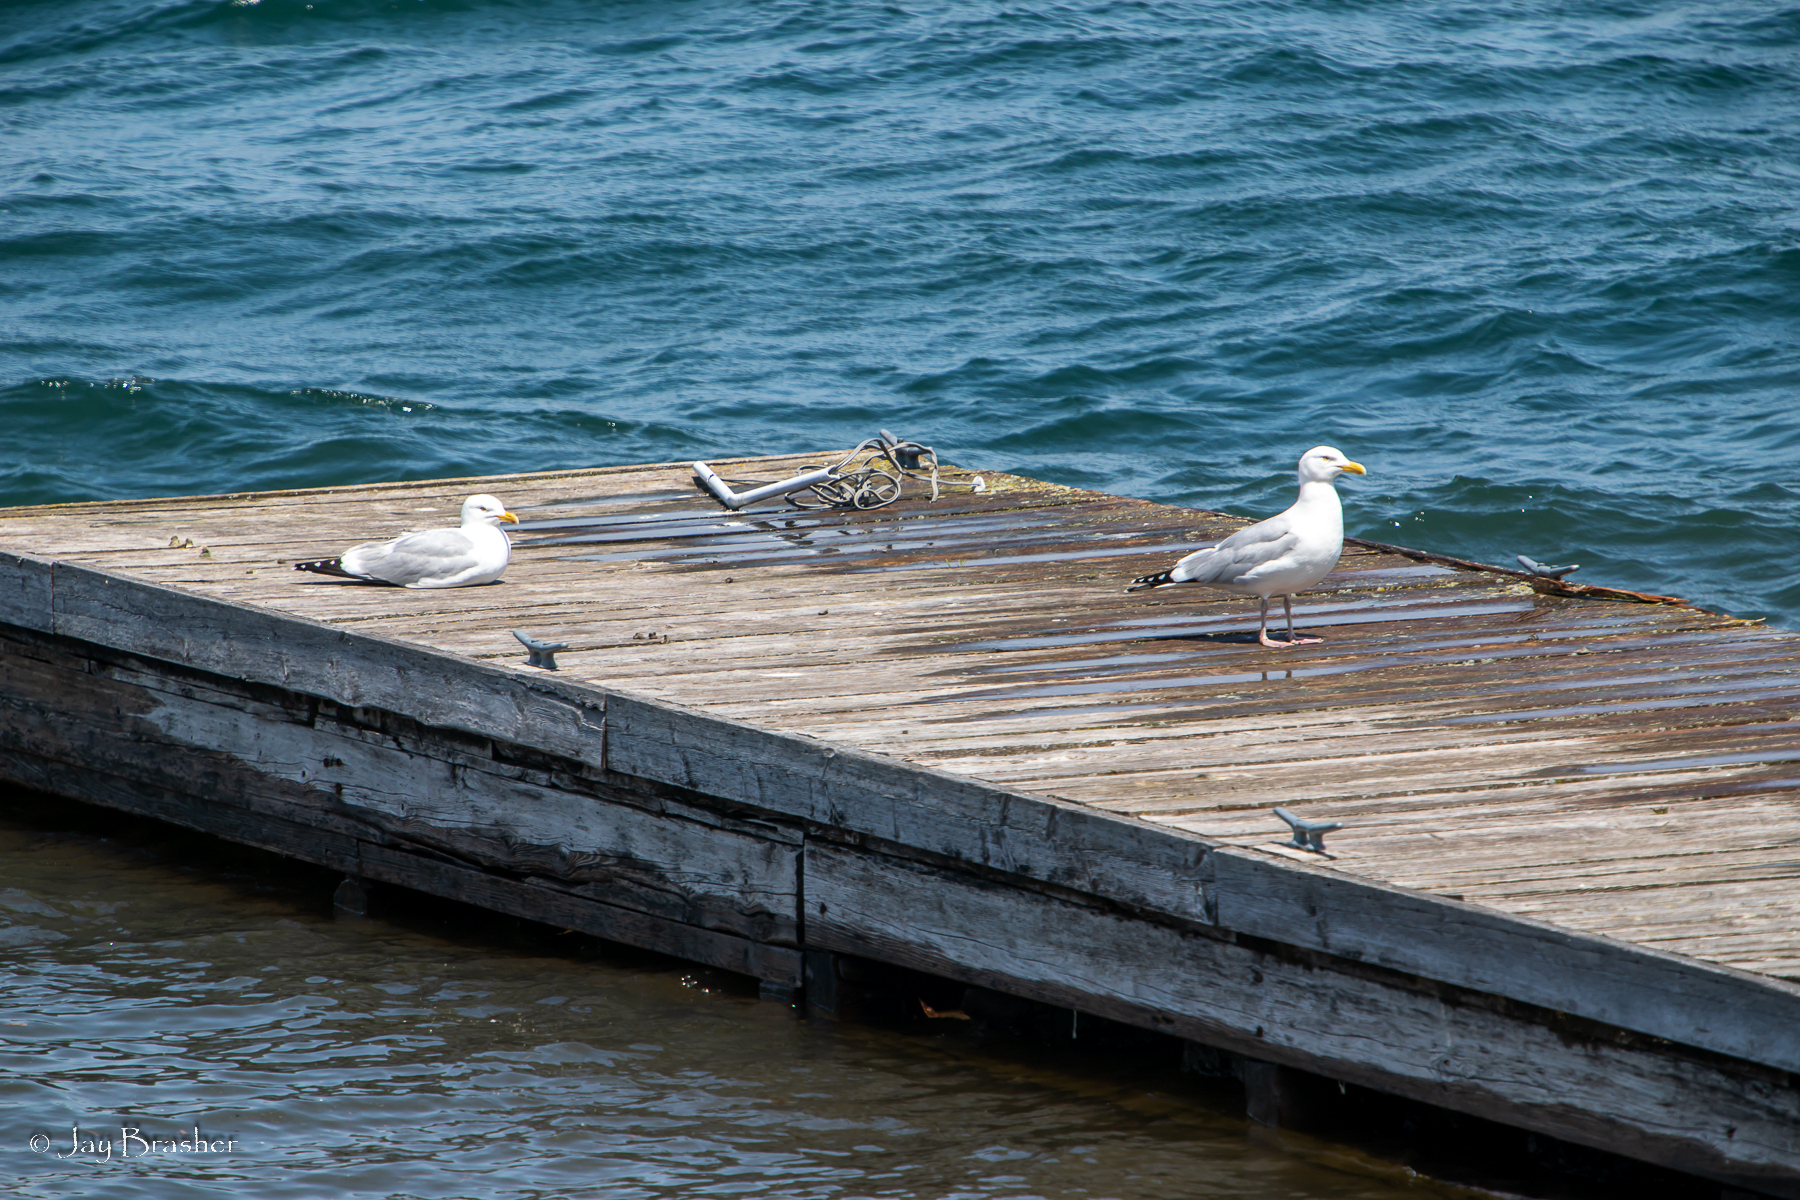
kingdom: Animalia
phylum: Chordata
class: Aves
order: Charadriiformes
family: Laridae
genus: Larus
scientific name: Larus argentatus
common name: Herring gull
